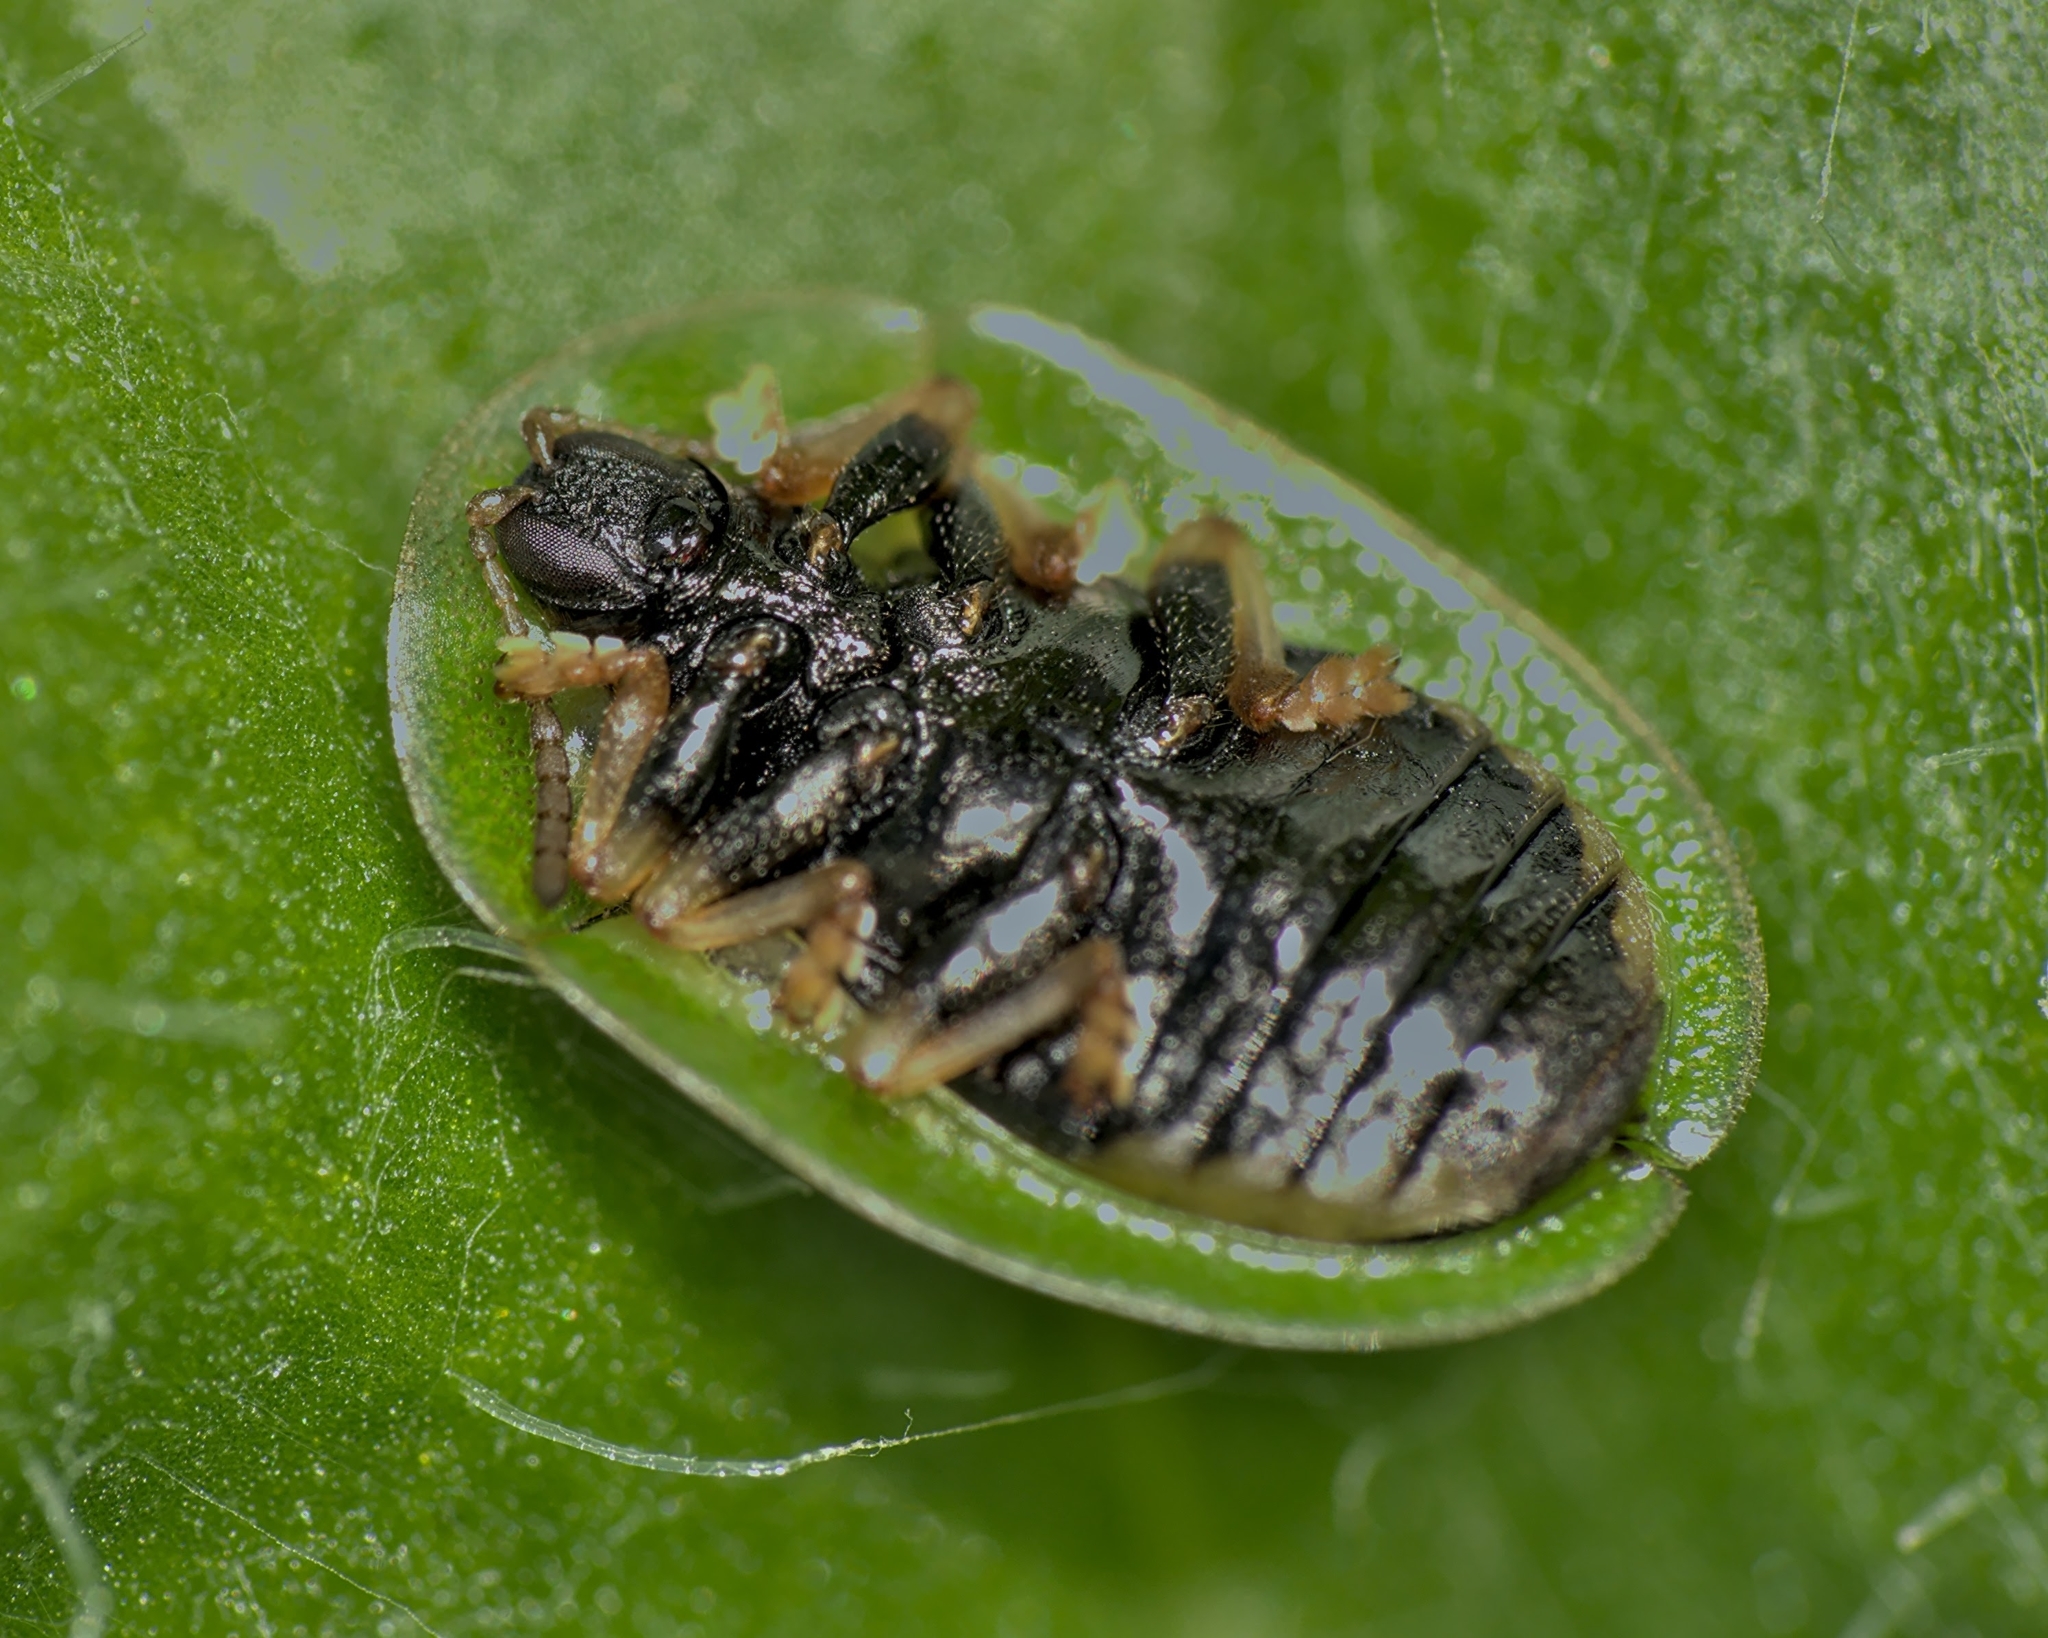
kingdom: Animalia
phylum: Arthropoda
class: Insecta
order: Coleoptera
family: Chrysomelidae
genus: Cassida
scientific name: Cassida rubiginosa
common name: Thistle tortoise beetle
